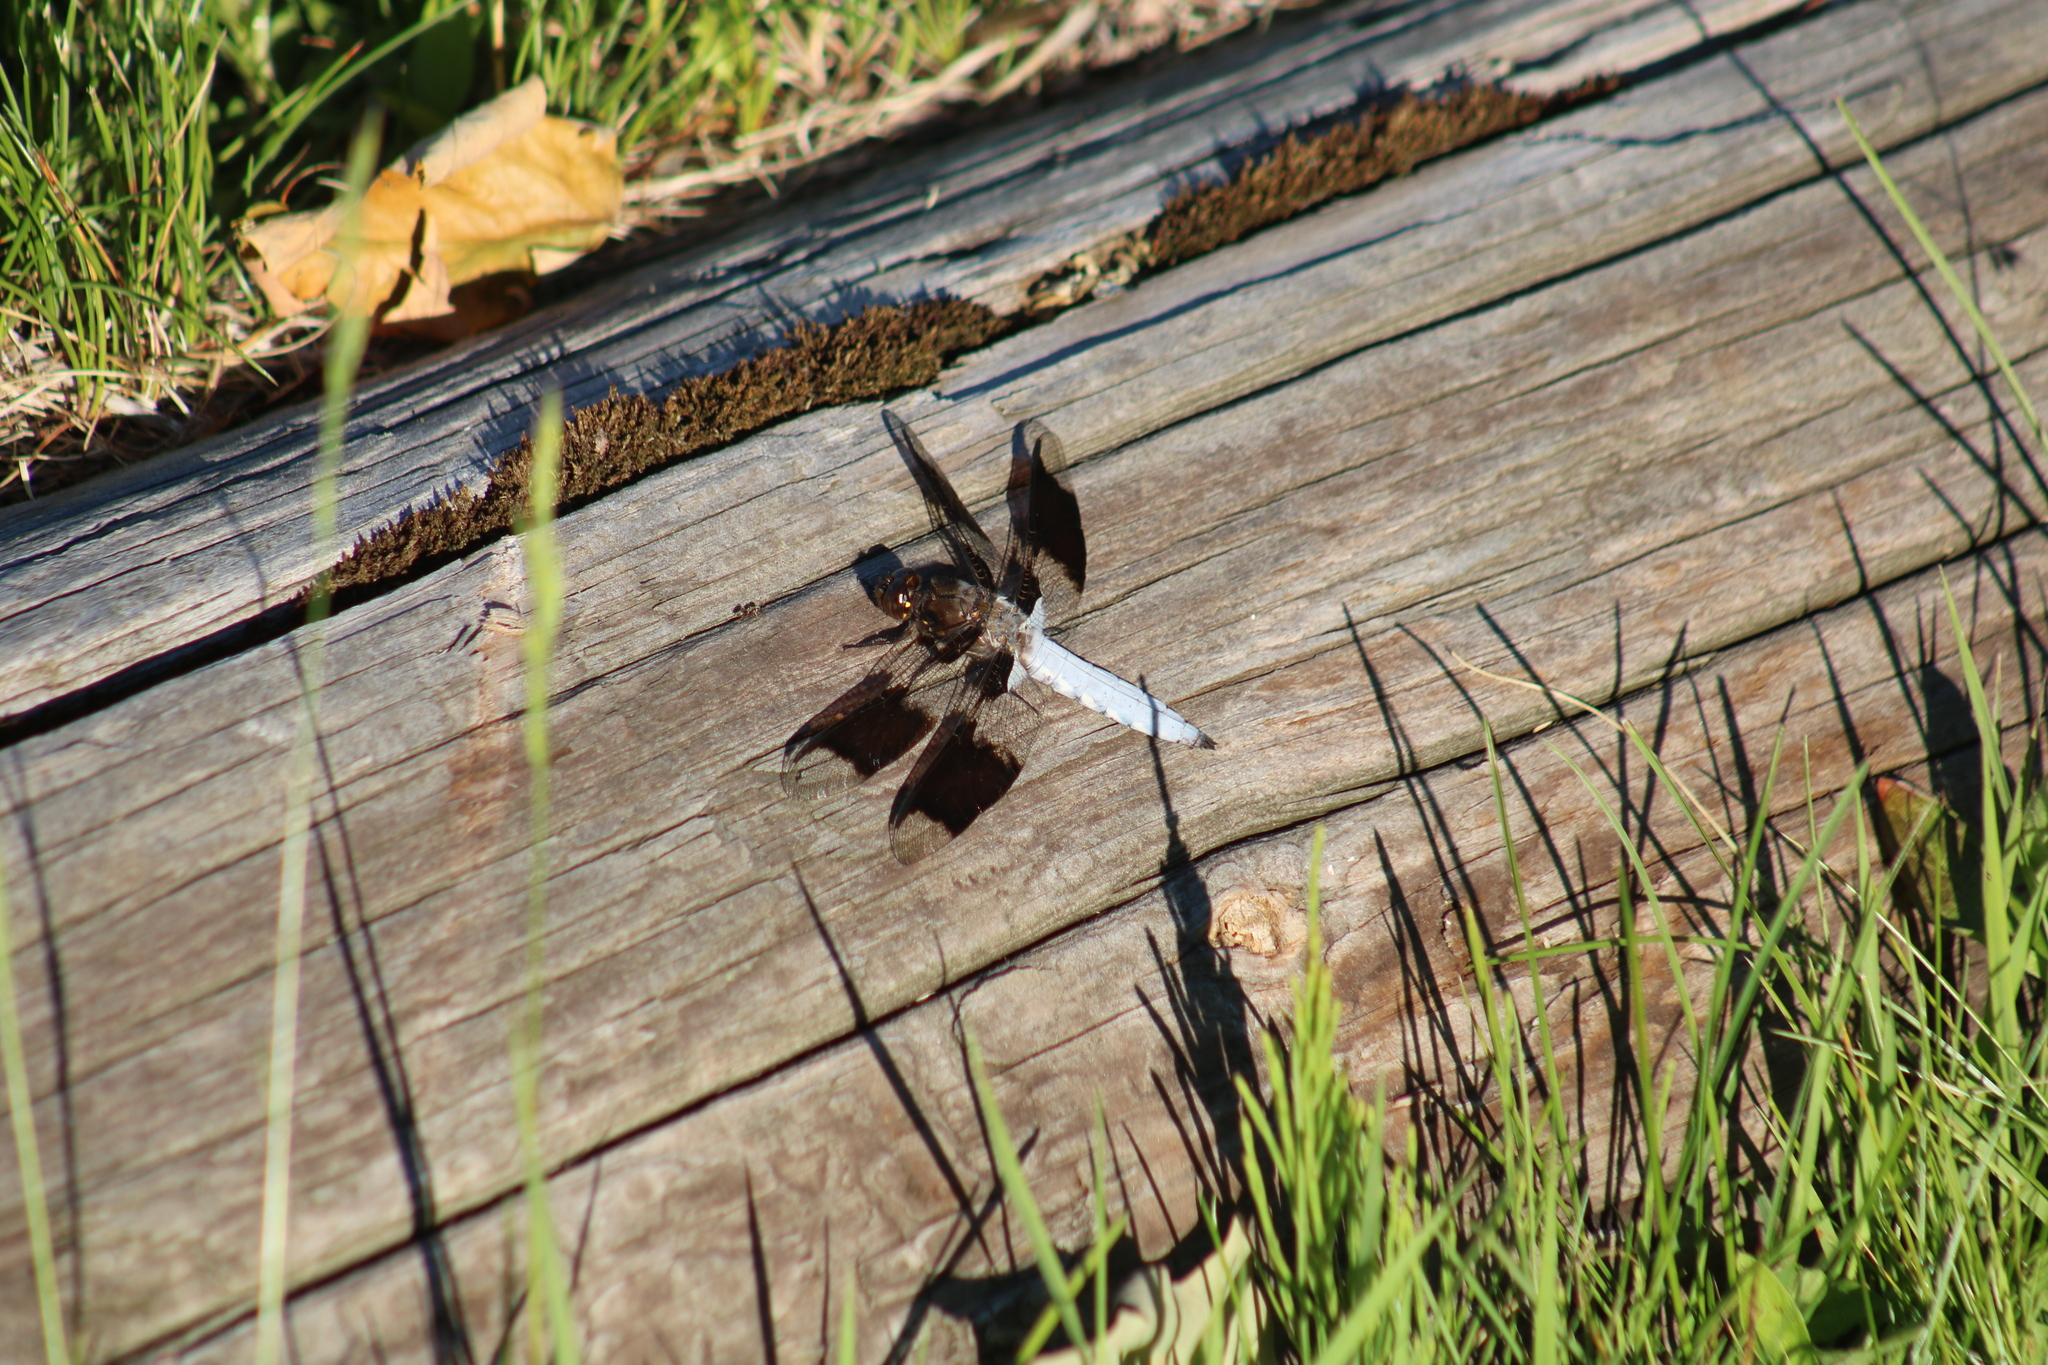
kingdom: Animalia
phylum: Arthropoda
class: Insecta
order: Odonata
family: Libellulidae
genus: Plathemis
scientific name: Plathemis lydia
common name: Common whitetail
